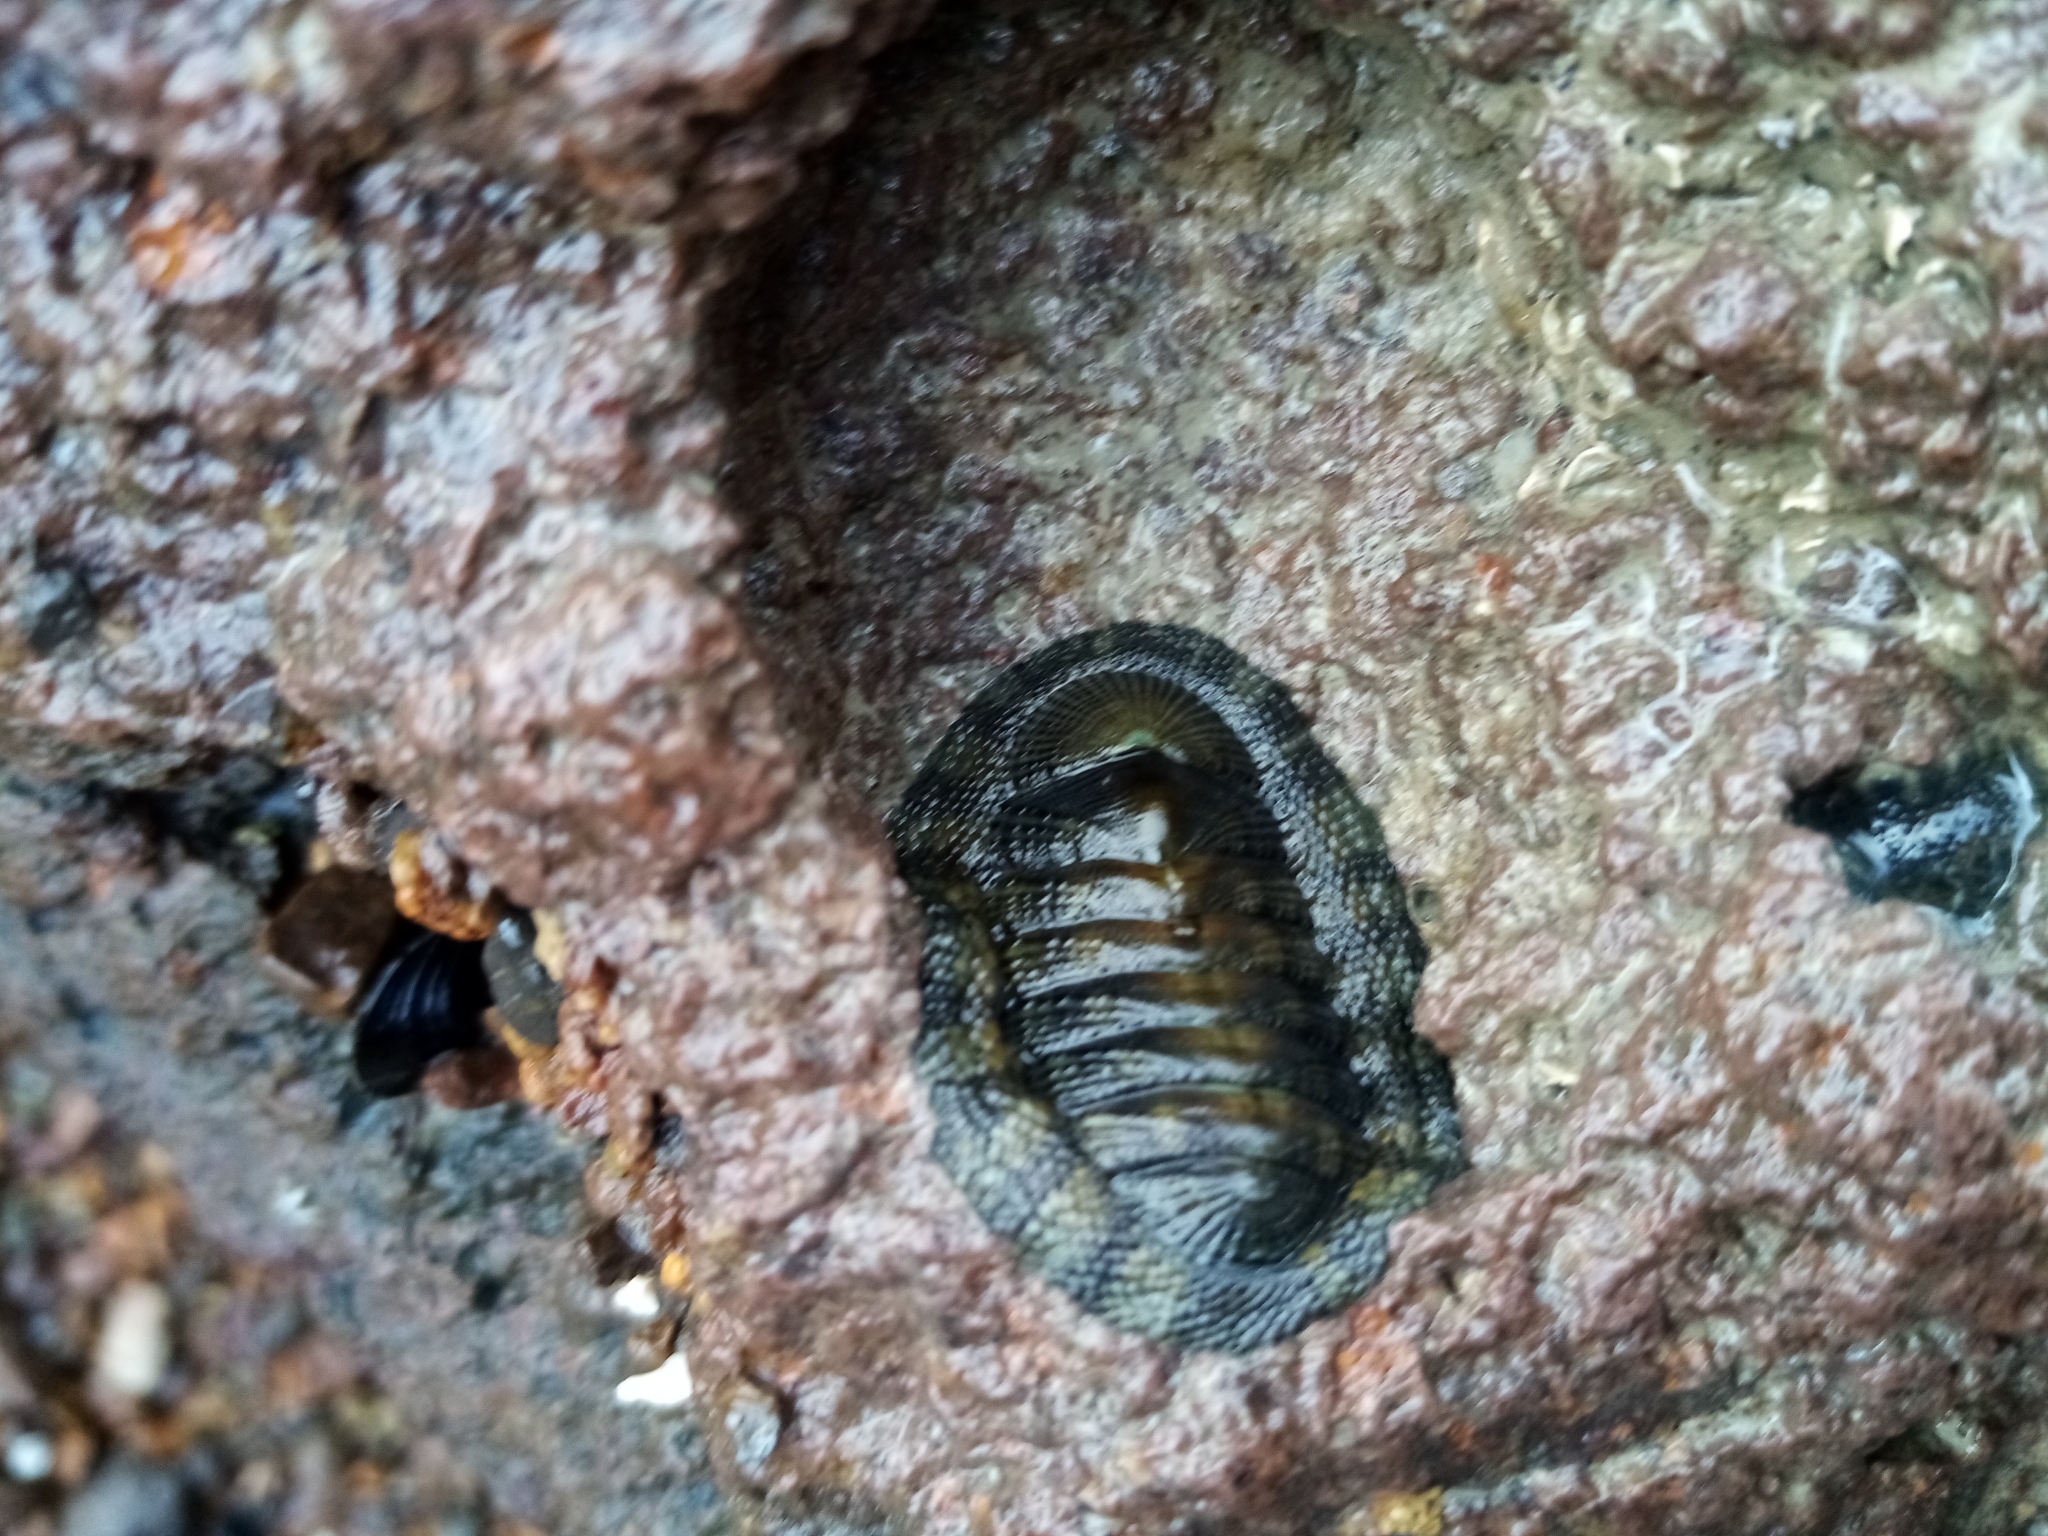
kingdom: Animalia
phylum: Mollusca
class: Polyplacophora
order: Chitonida
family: Chitonidae
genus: Sypharochiton
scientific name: Sypharochiton pelliserpentis
